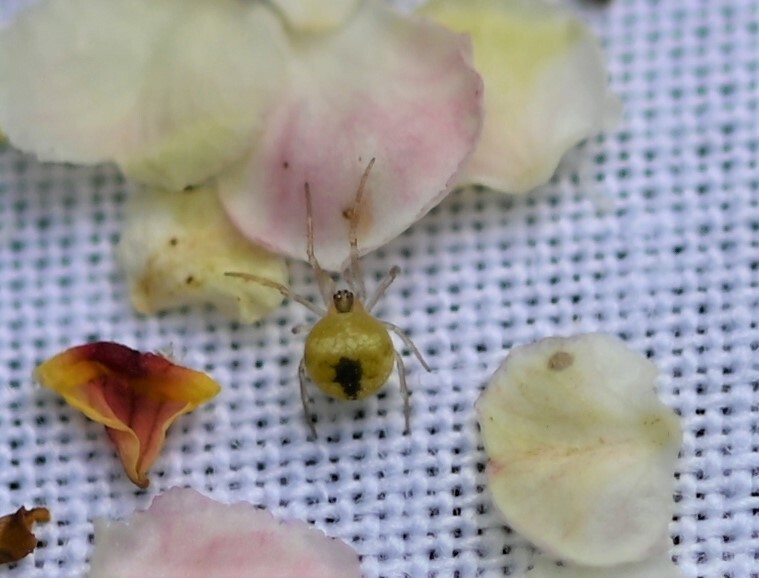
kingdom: Animalia
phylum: Arthropoda
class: Arachnida
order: Araneae
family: Theridiidae
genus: Paidiscura
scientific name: Paidiscura pallens
